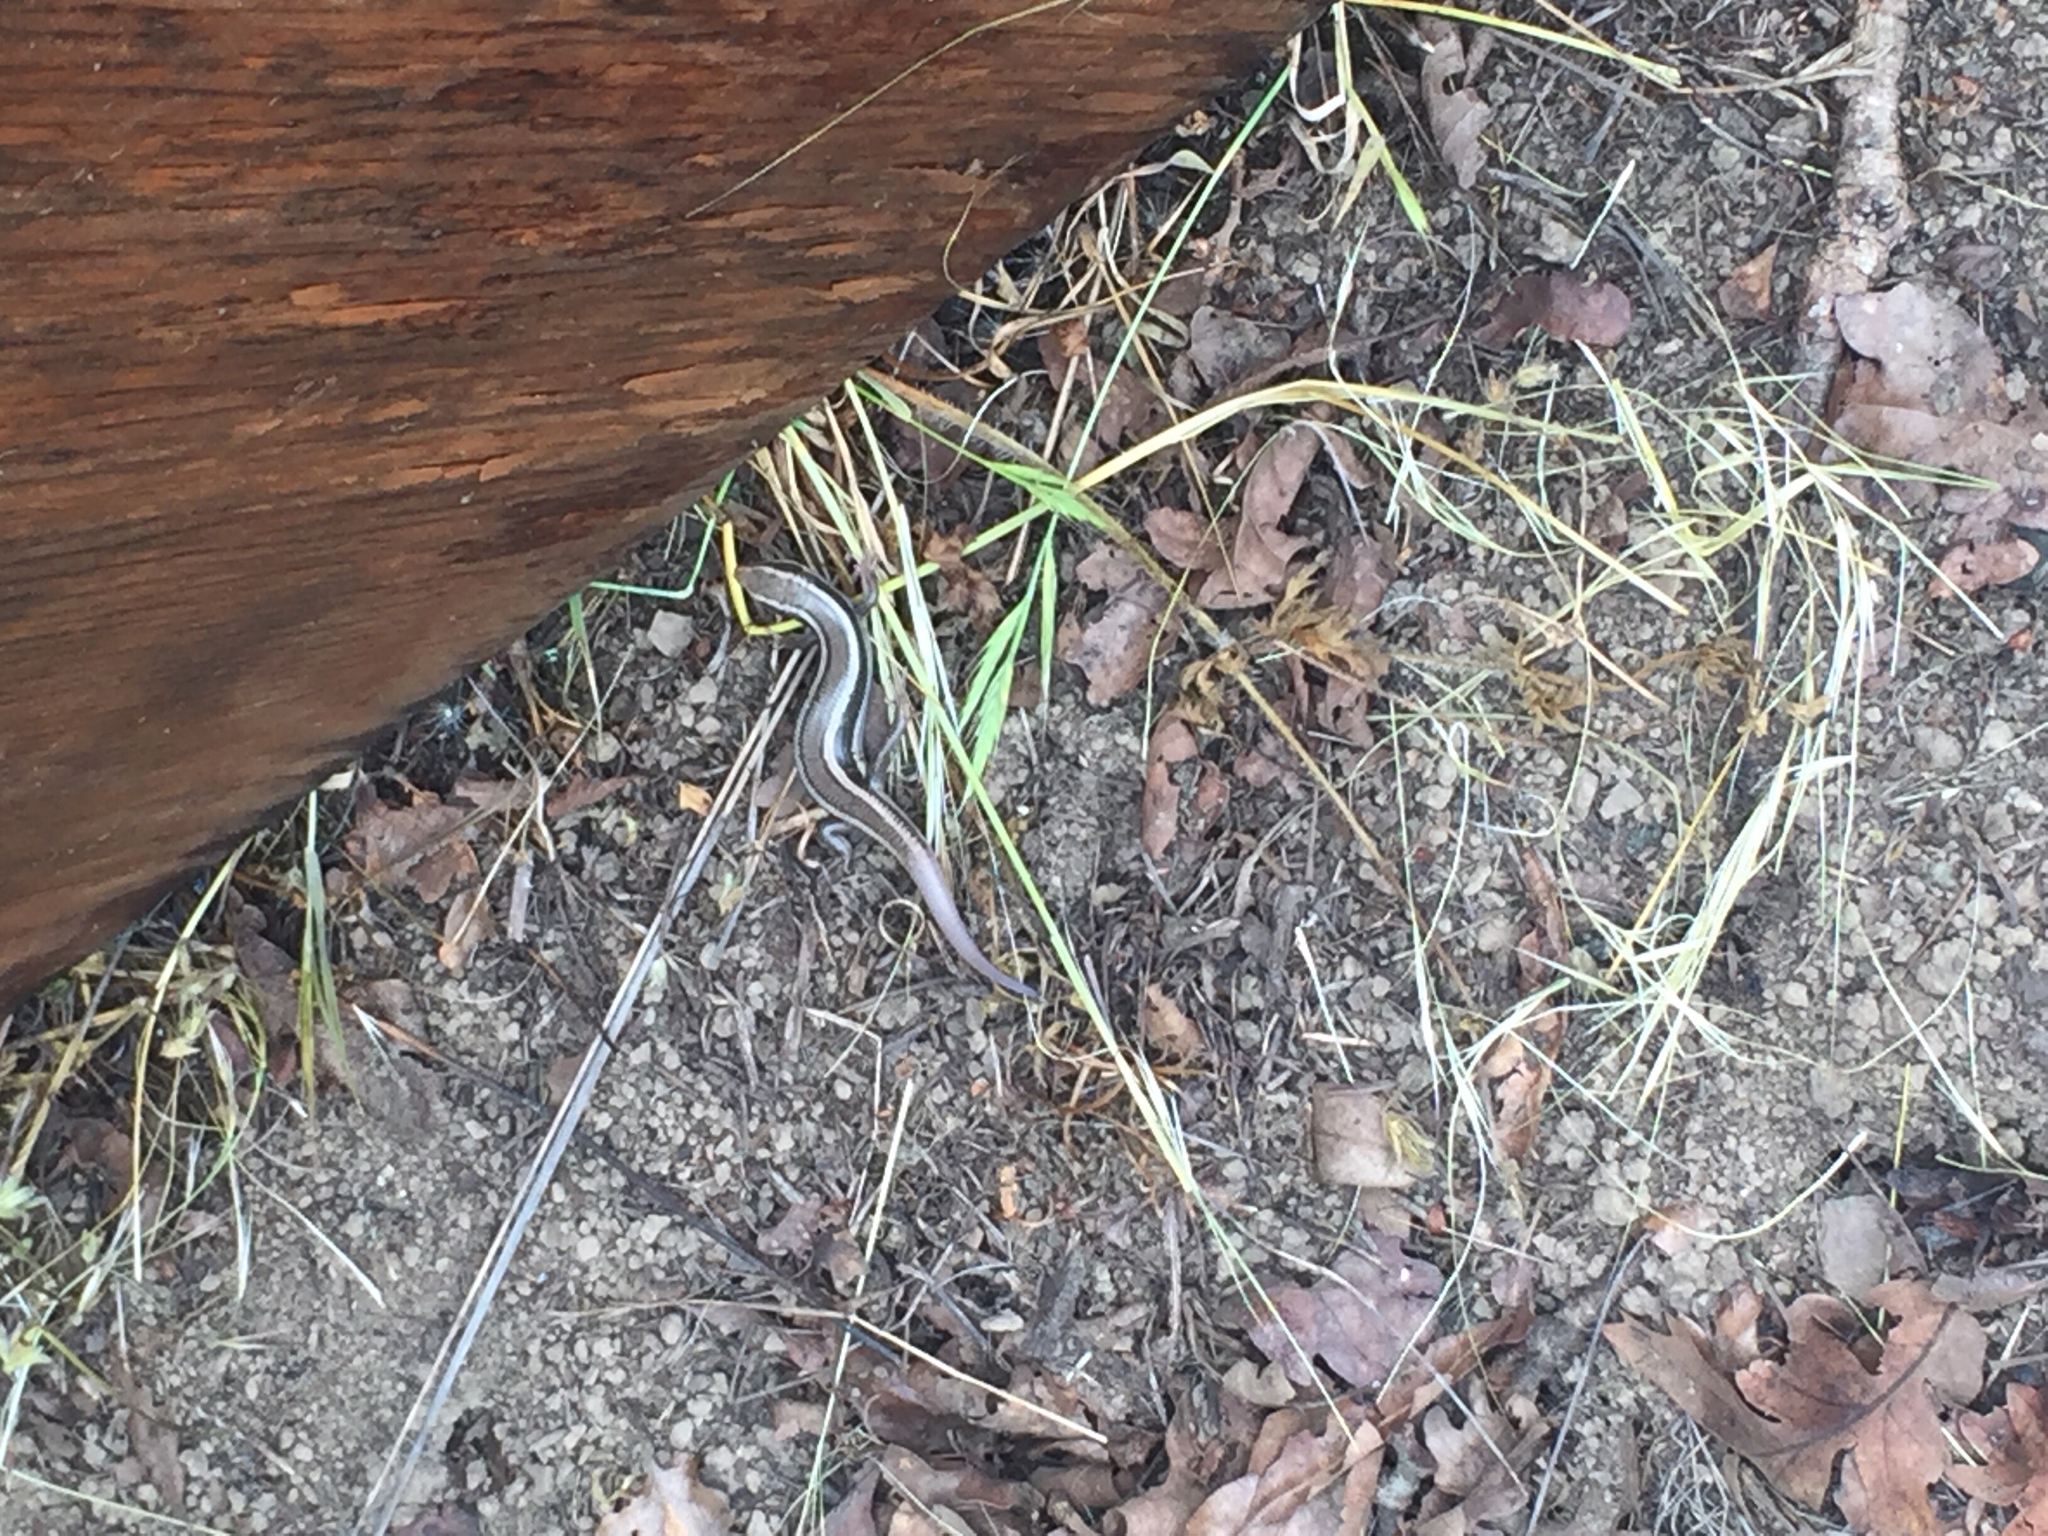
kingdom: Animalia
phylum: Chordata
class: Squamata
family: Scincidae
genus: Plestiodon
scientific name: Plestiodon skiltonianus
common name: Coronado island skink [interparietalis]
